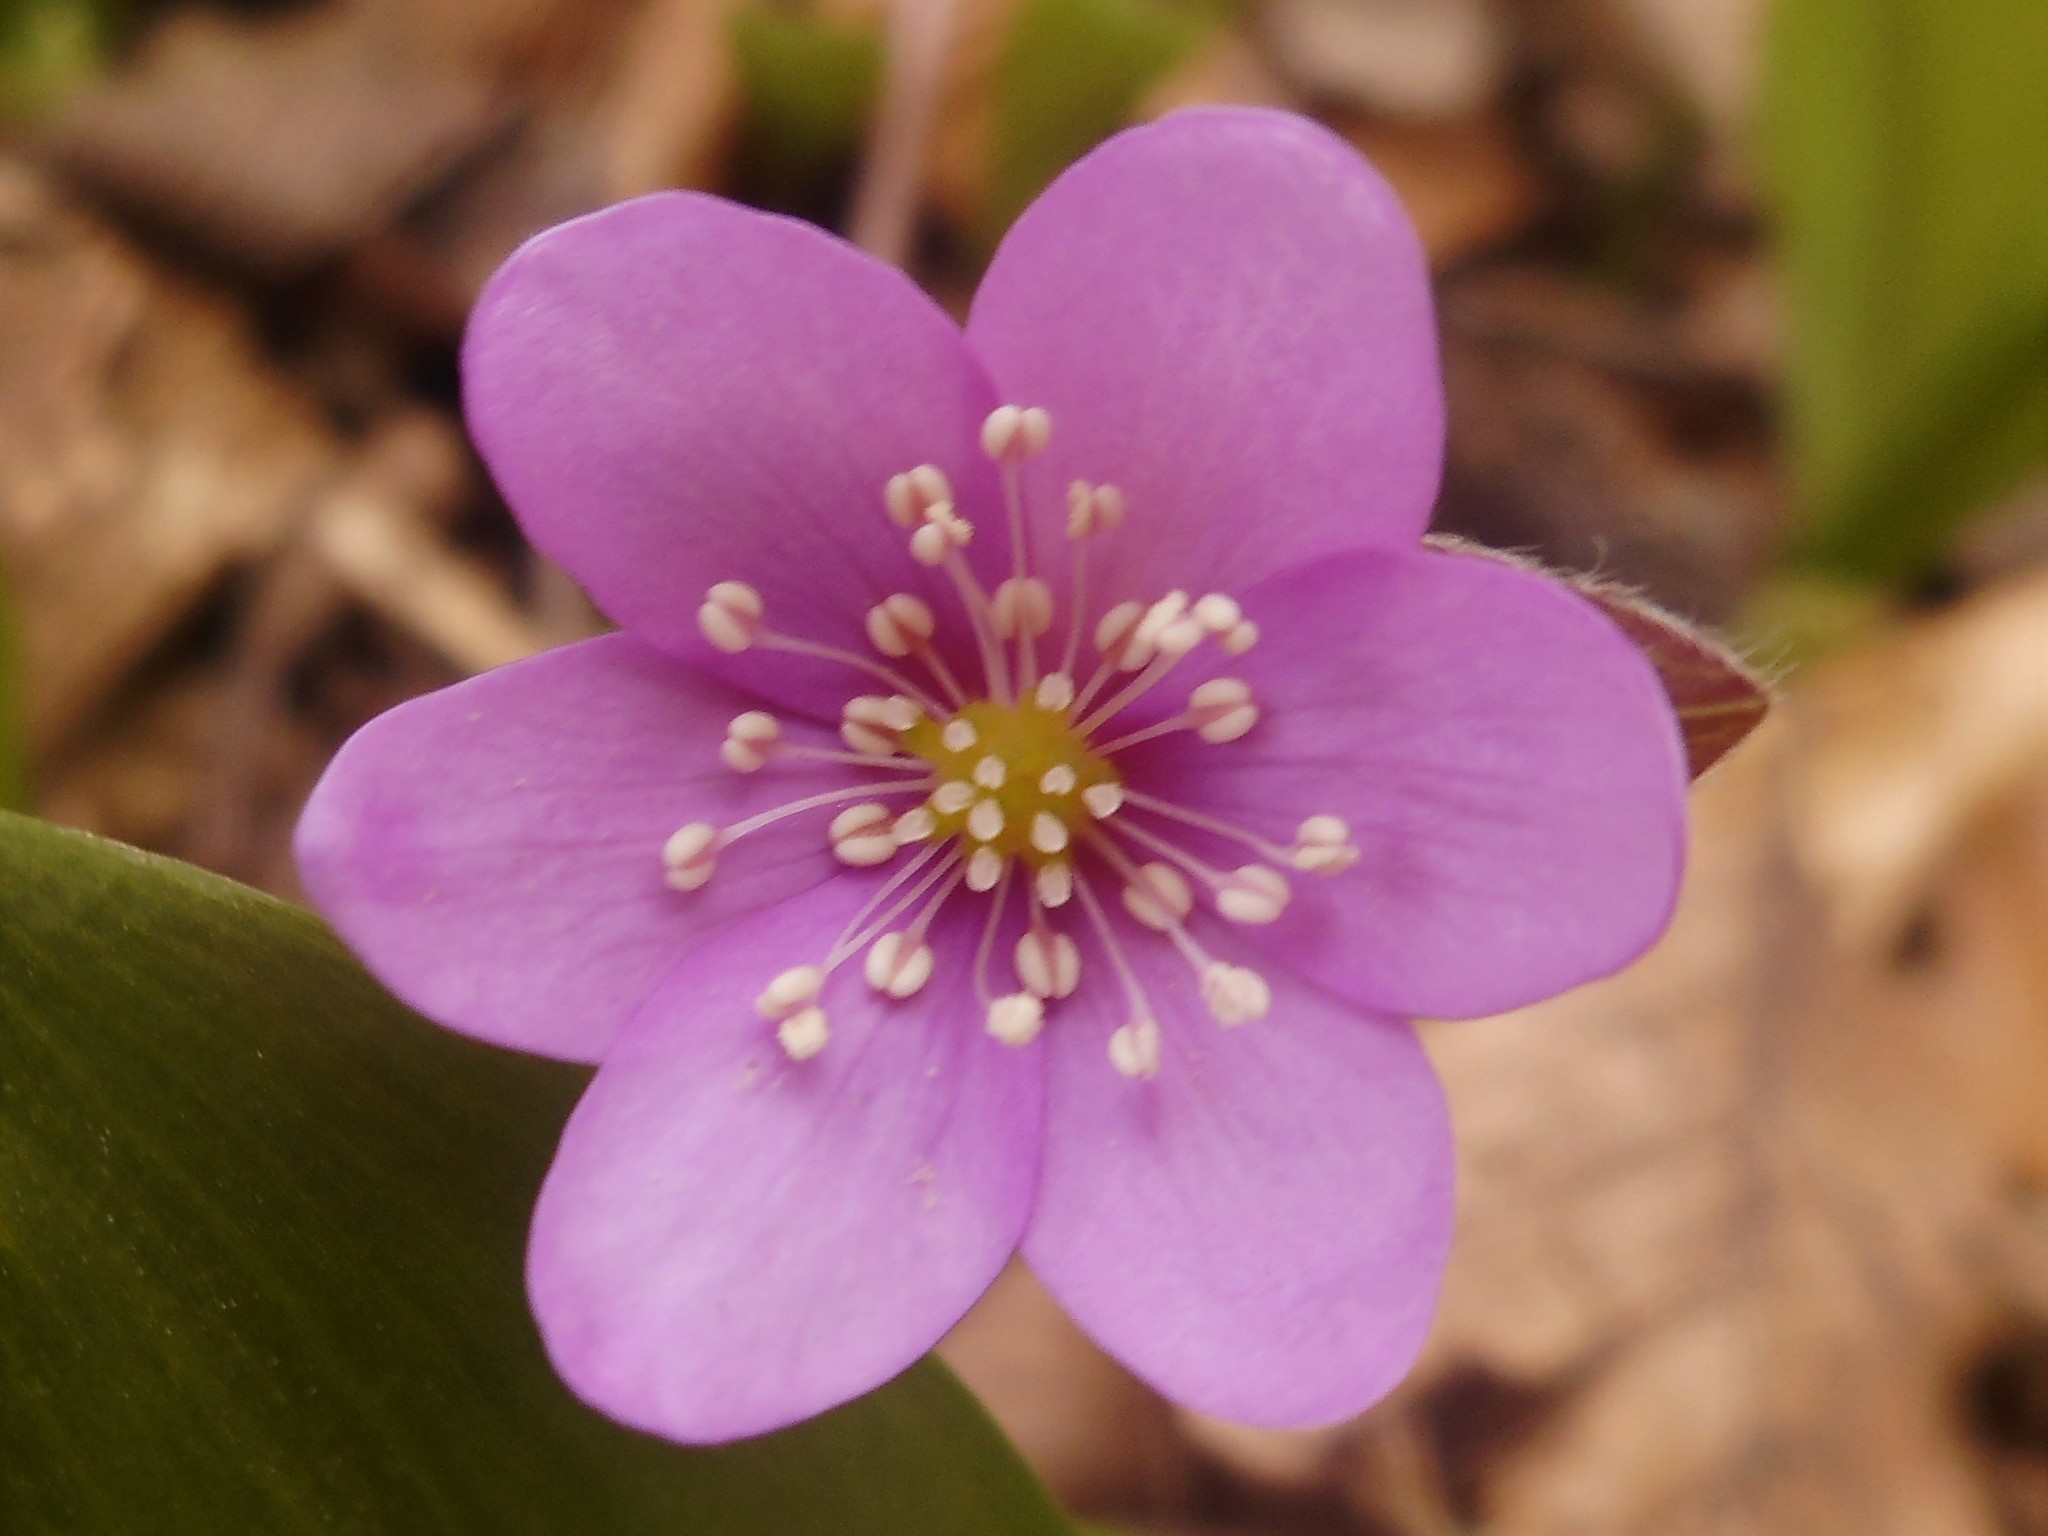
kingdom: Plantae
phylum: Tracheophyta
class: Magnoliopsida
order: Ranunculales
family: Ranunculaceae
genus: Hepatica
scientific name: Hepatica nobilis
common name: Liverleaf
